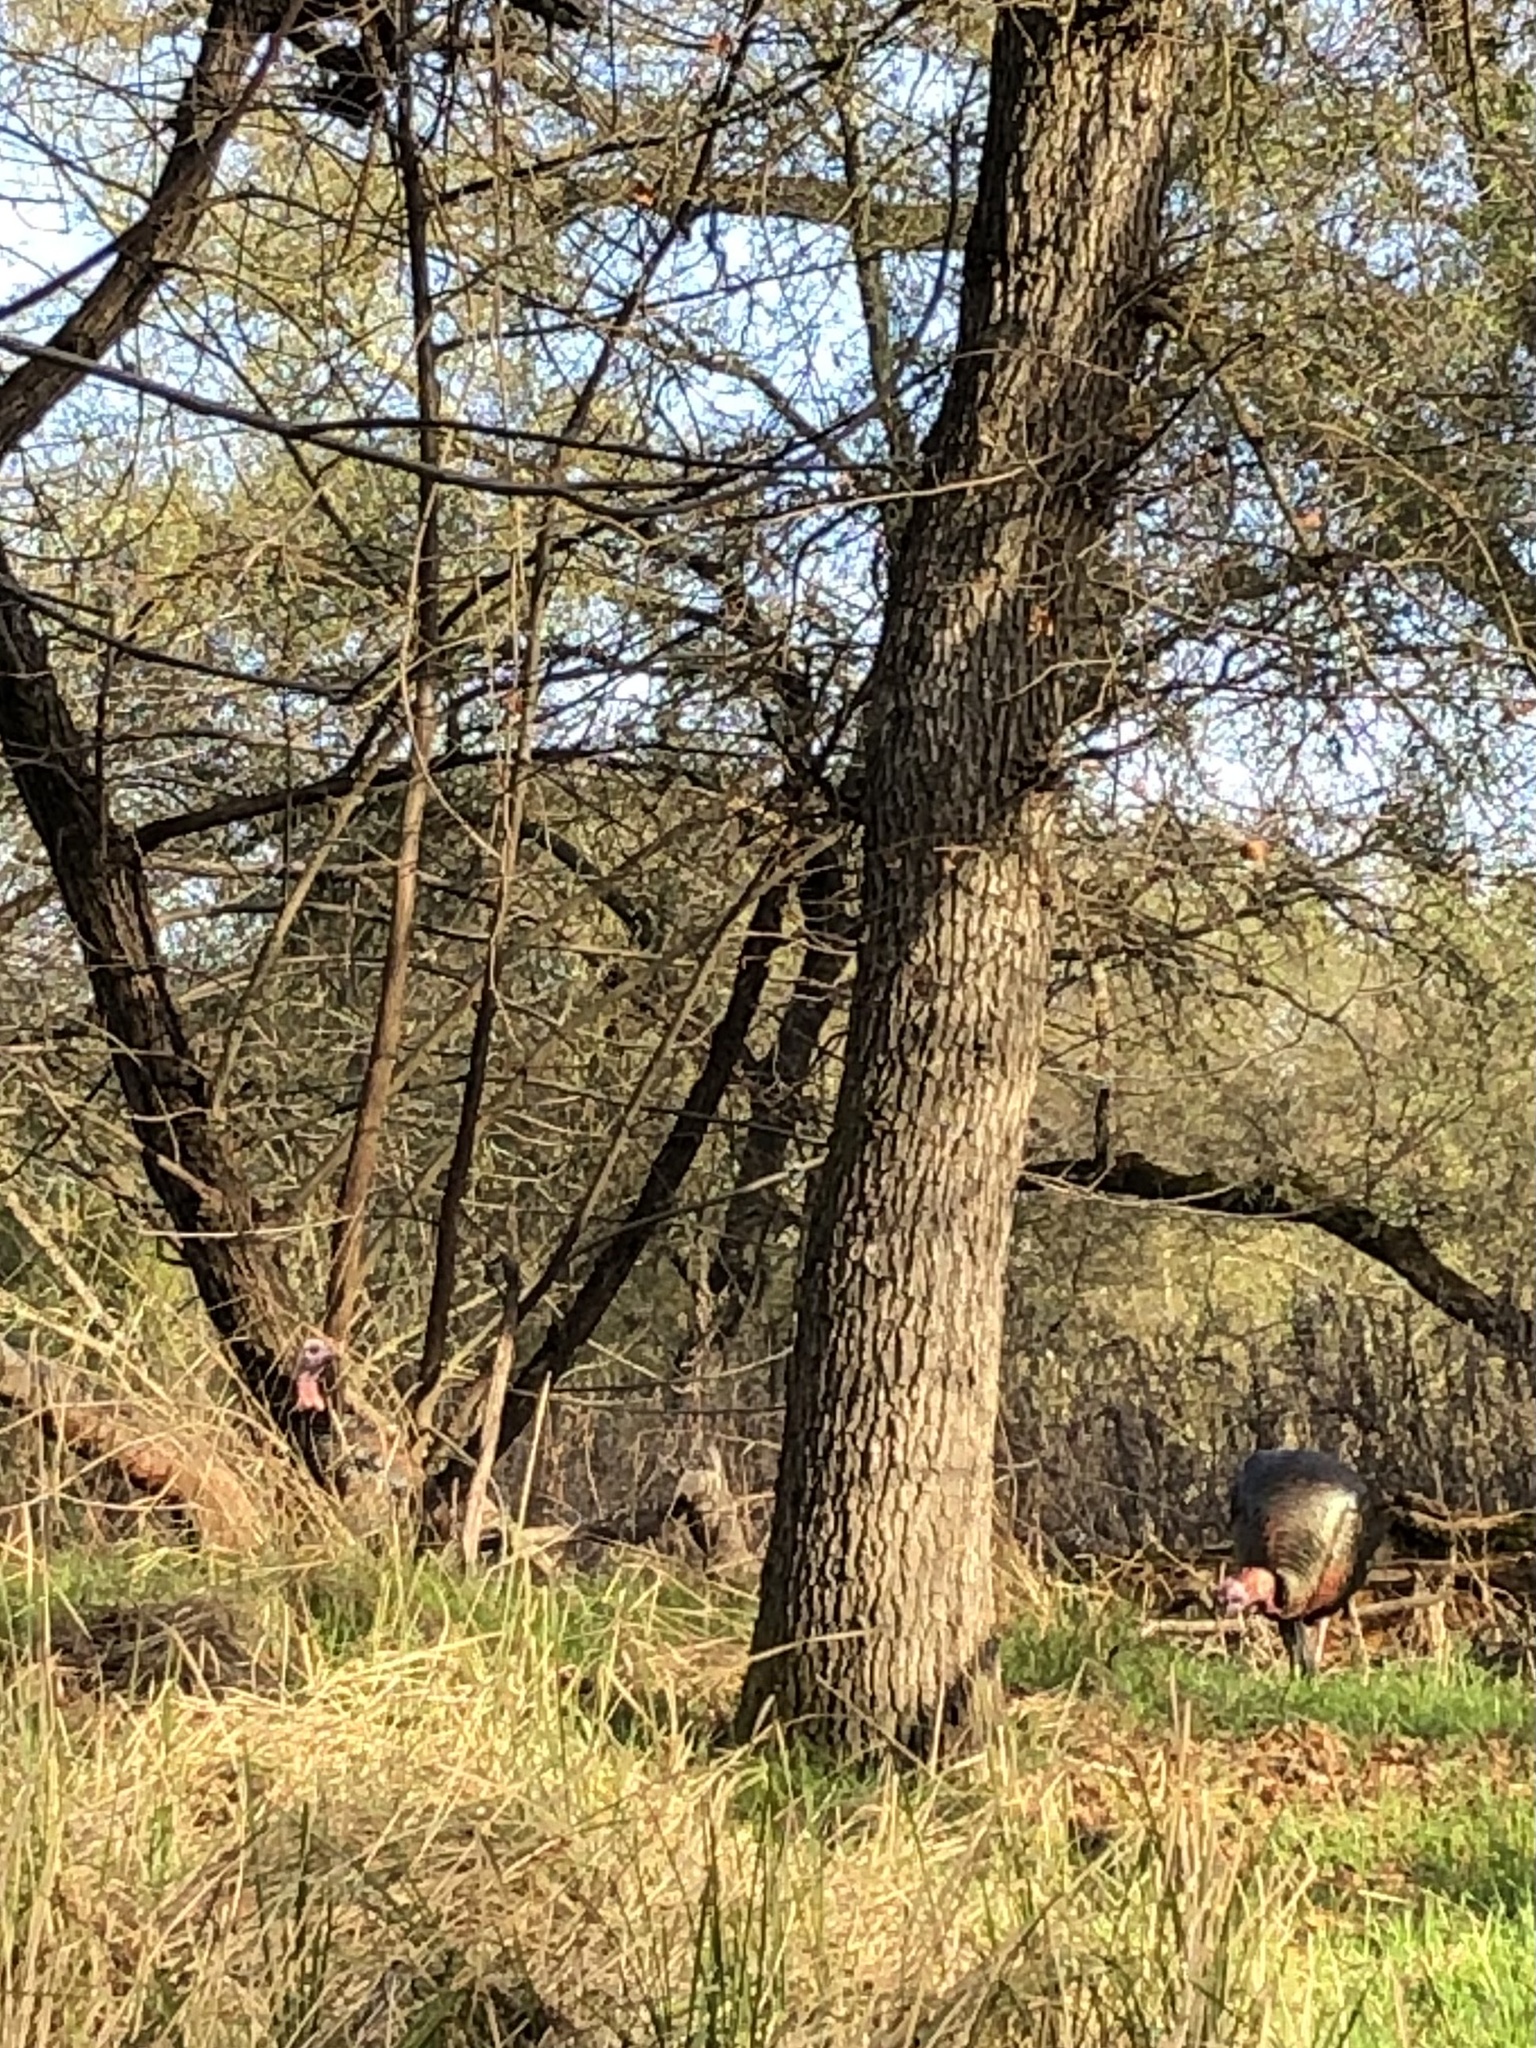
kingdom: Animalia
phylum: Chordata
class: Aves
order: Galliformes
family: Phasianidae
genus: Meleagris
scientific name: Meleagris gallopavo
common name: Wild turkey
